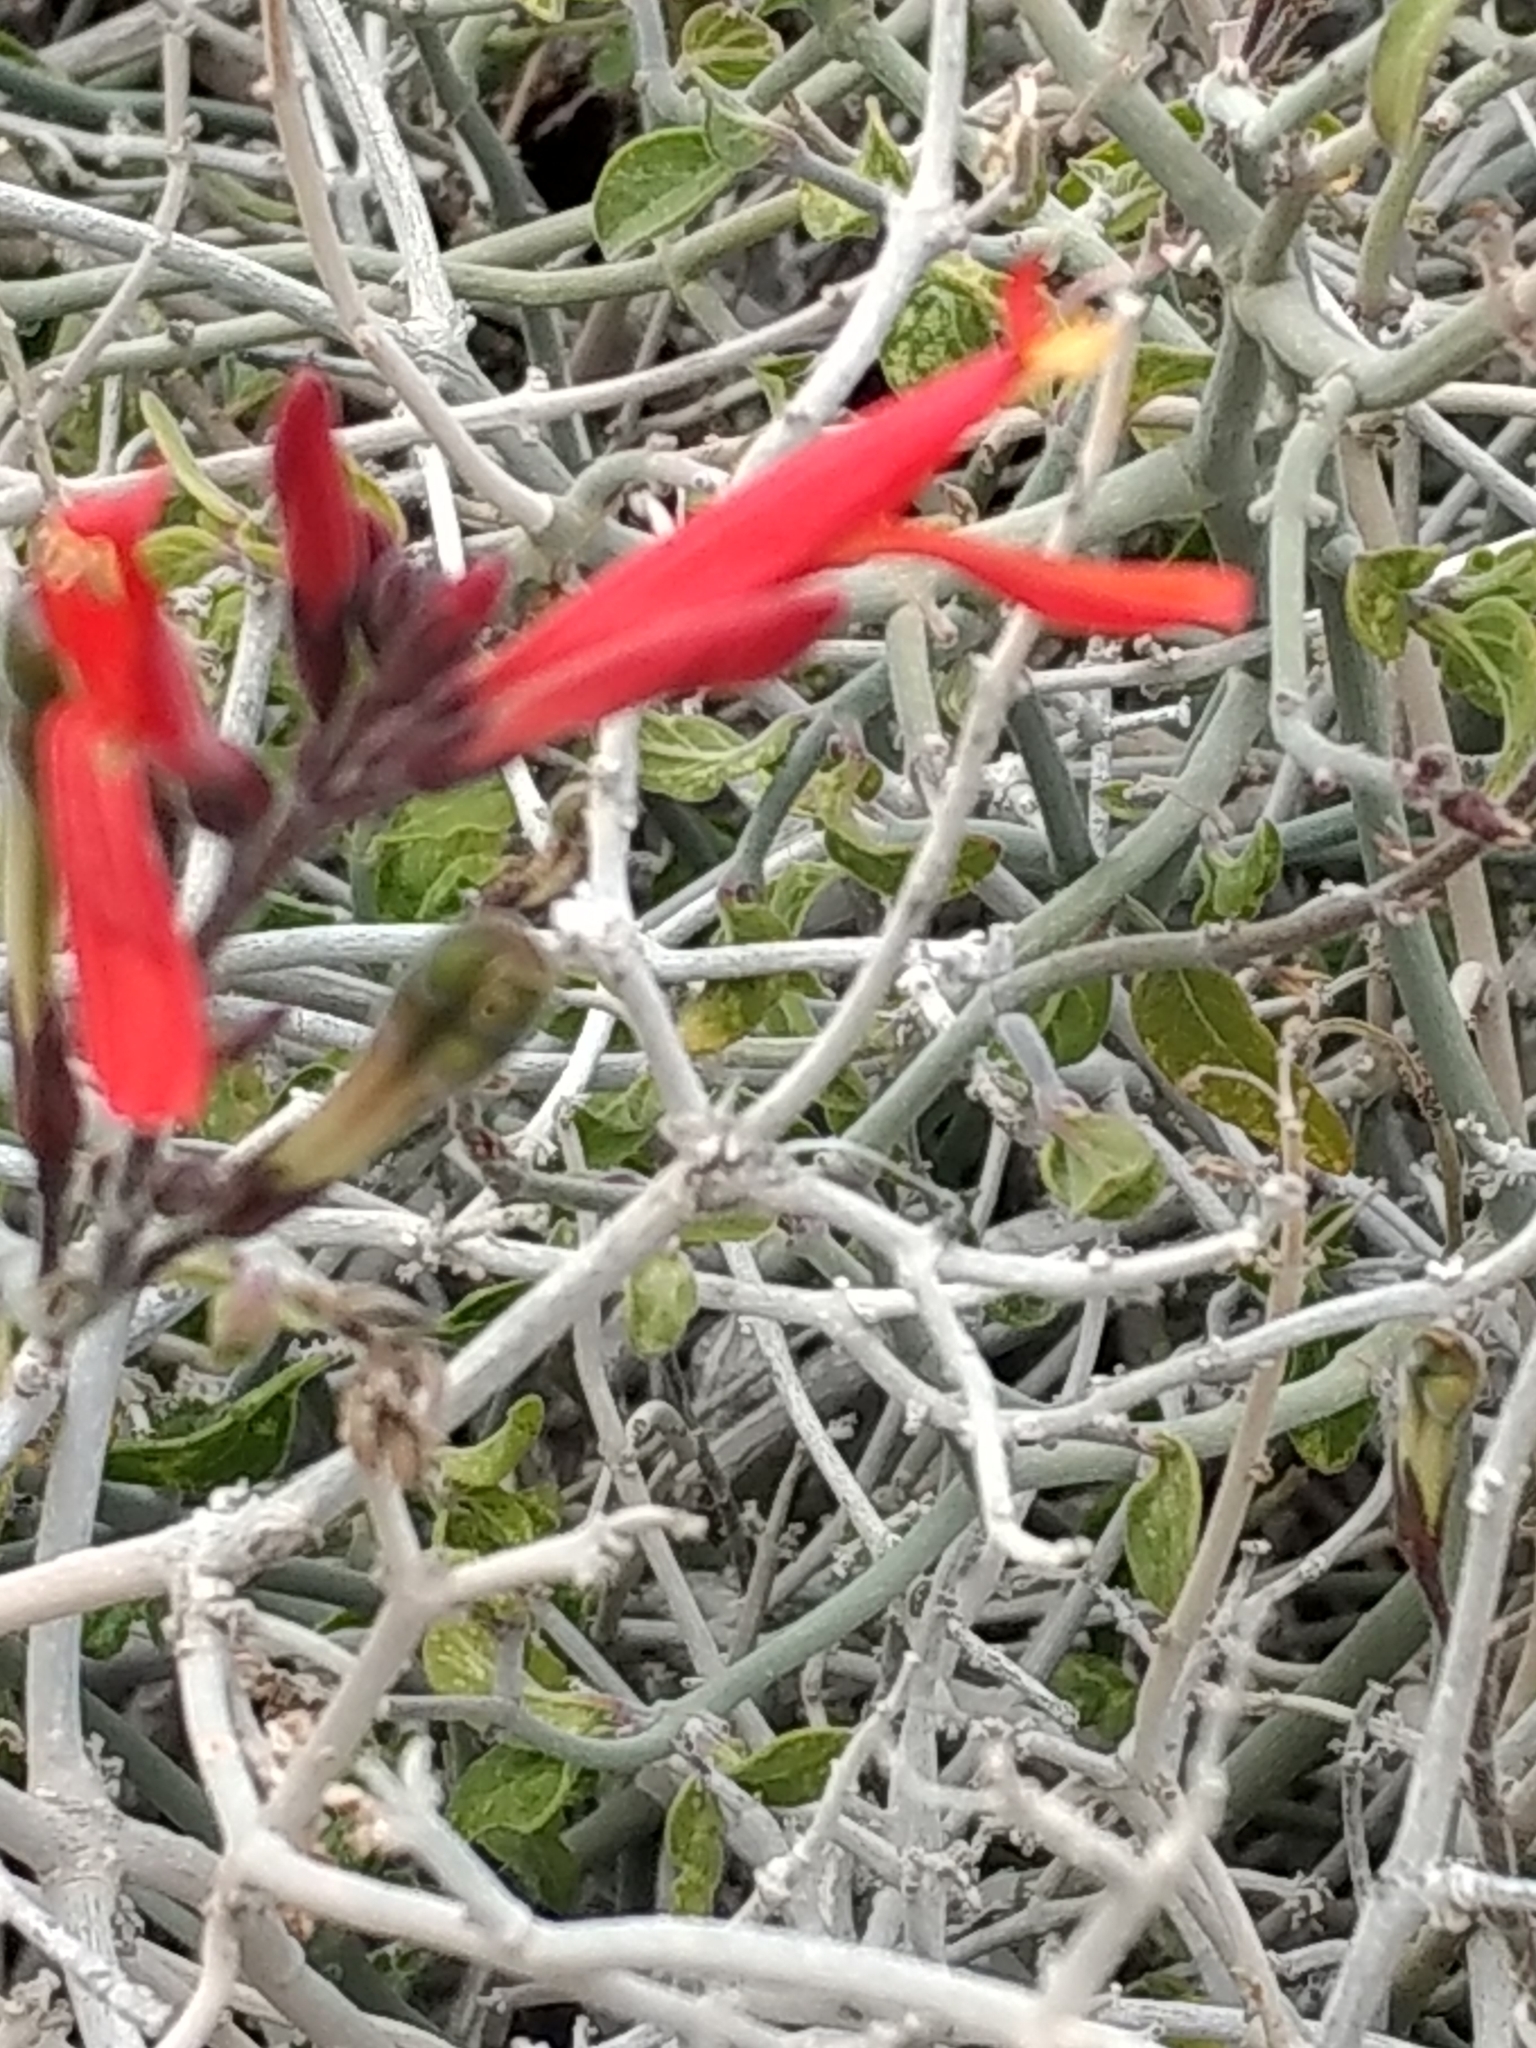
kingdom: Plantae
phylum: Tracheophyta
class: Magnoliopsida
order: Lamiales
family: Acanthaceae
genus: Justicia
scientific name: Justicia californica
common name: Chuparosa-honeysuckle
